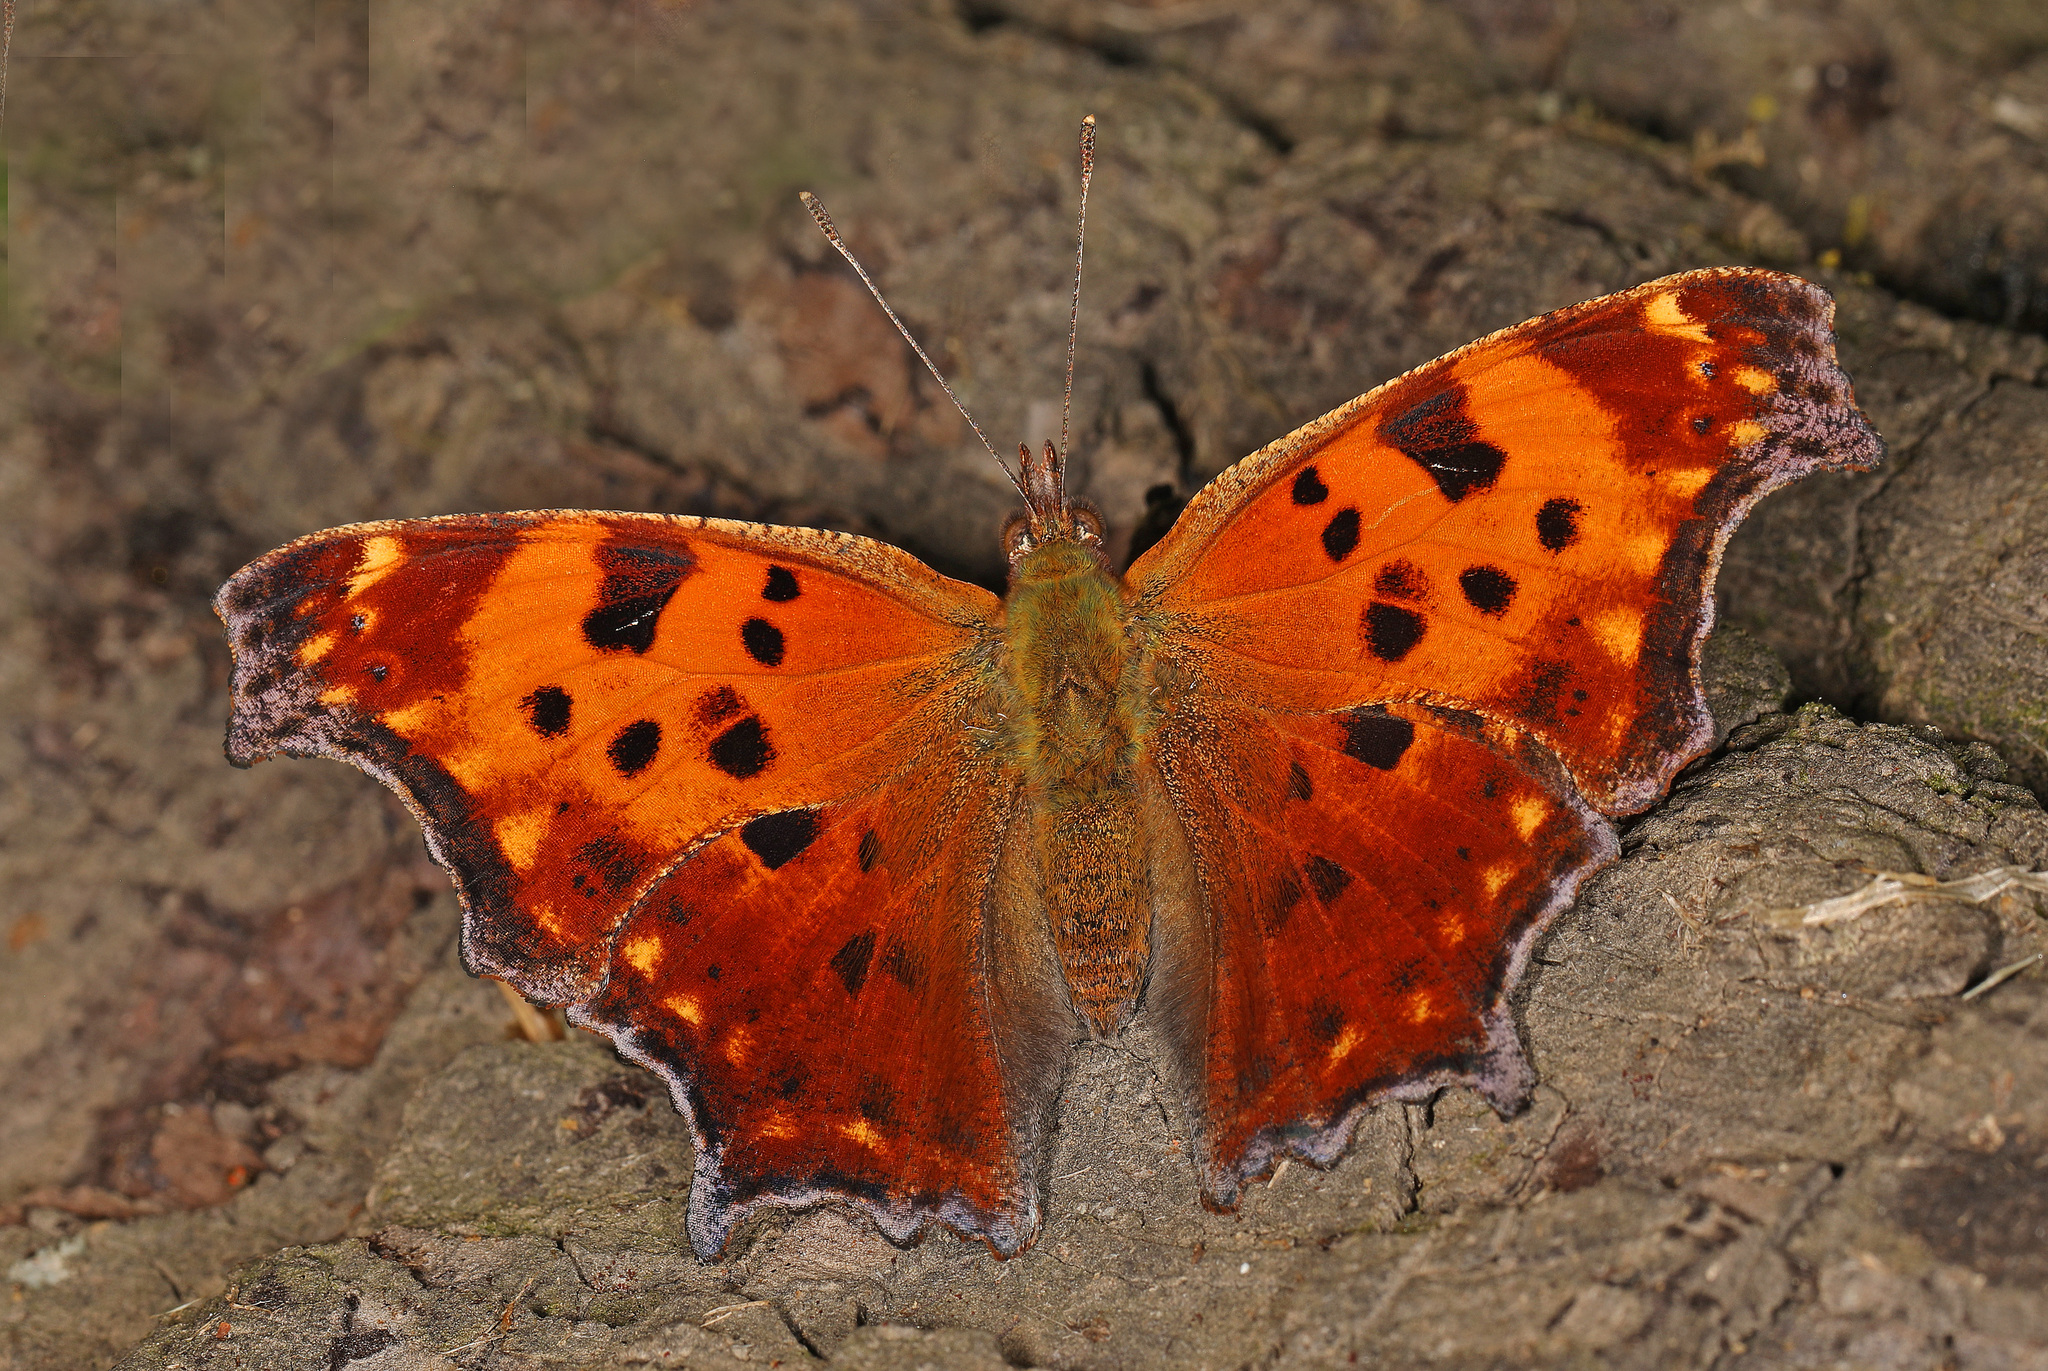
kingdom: Animalia
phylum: Arthropoda
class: Insecta
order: Lepidoptera
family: Nymphalidae
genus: Polygonia
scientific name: Polygonia comma
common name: Eastern comma
